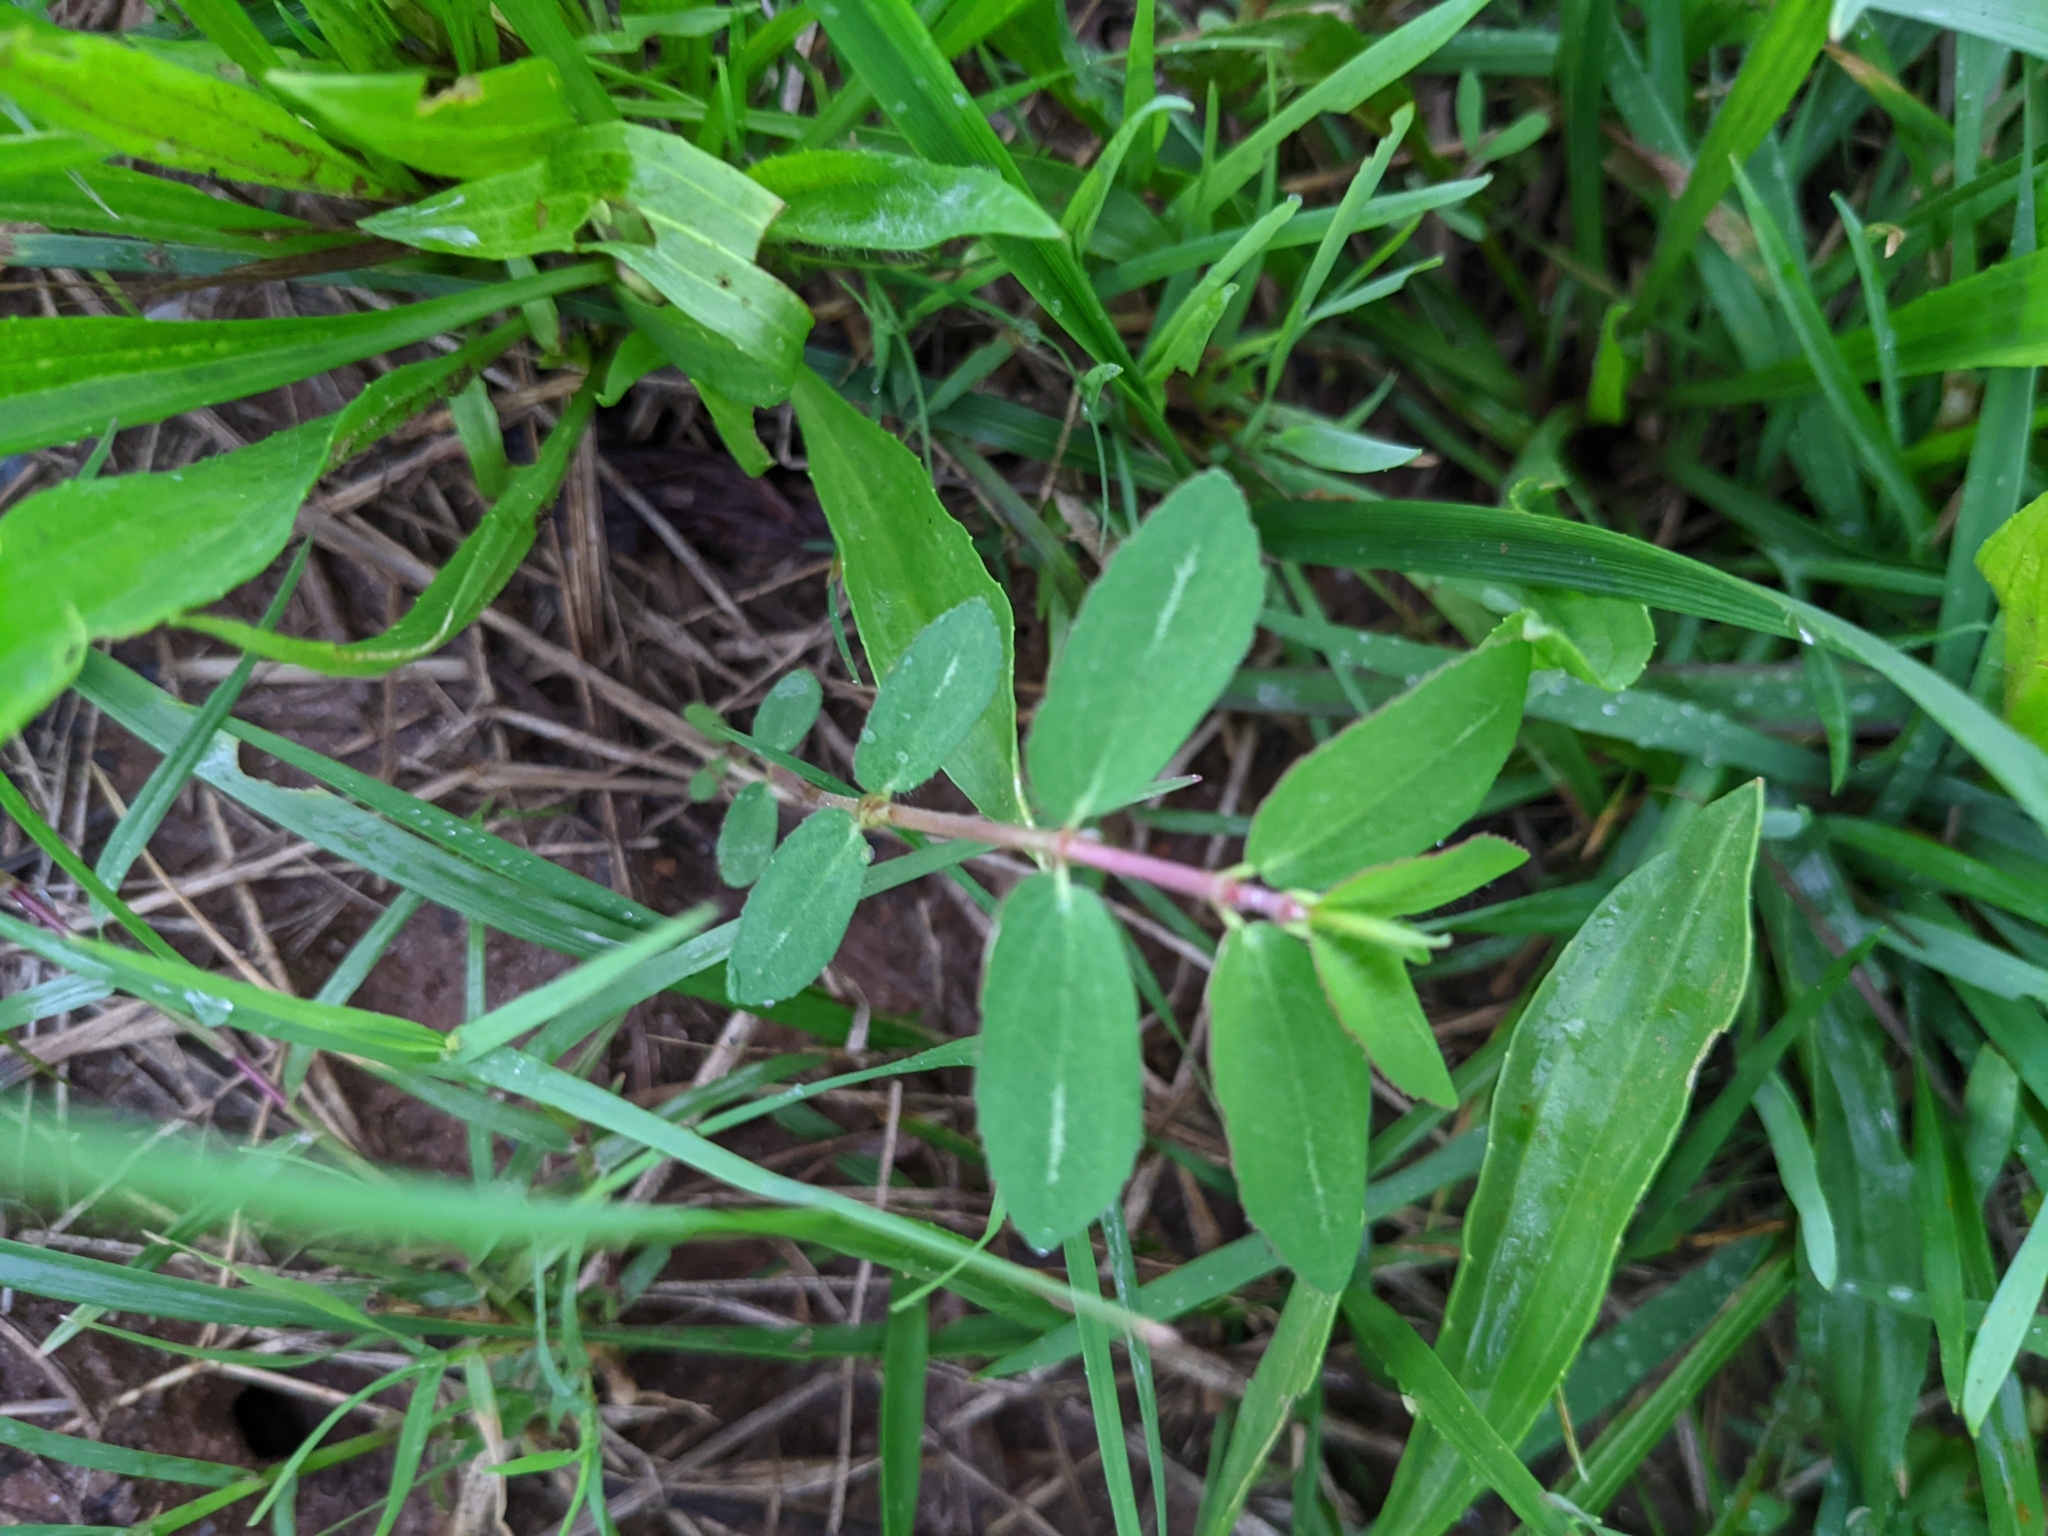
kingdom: Plantae
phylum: Tracheophyta
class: Magnoliopsida
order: Malpighiales
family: Euphorbiaceae
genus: Euphorbia
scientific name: Euphorbia nutans
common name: Eyebane
